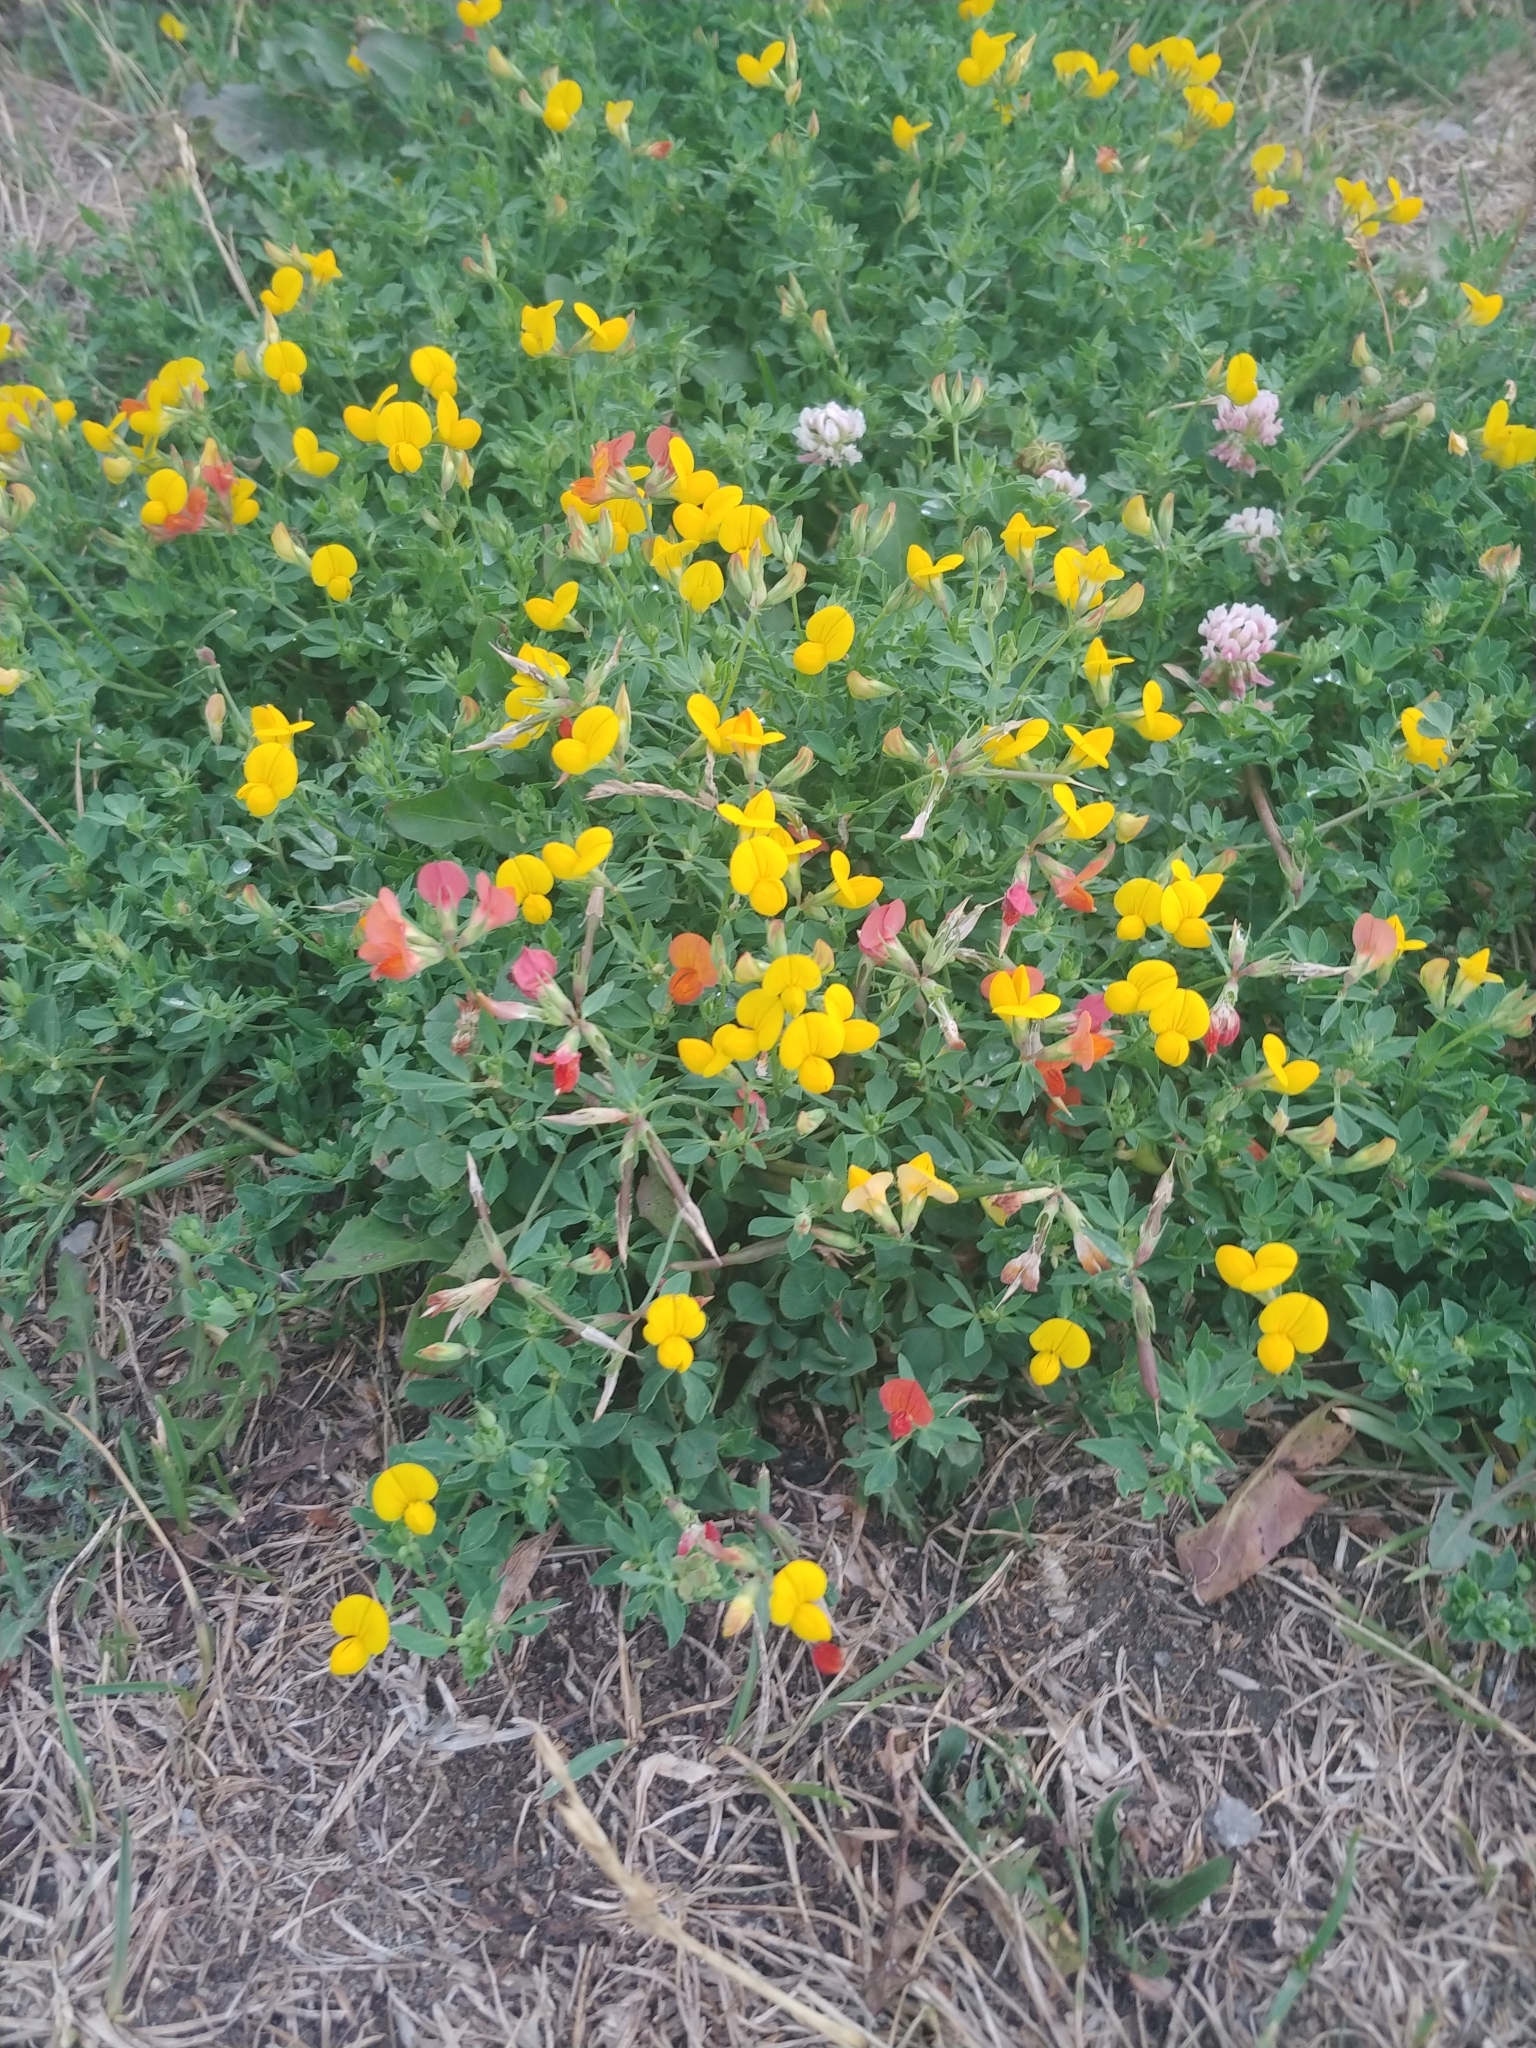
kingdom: Plantae
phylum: Tracheophyta
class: Magnoliopsida
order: Fabales
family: Fabaceae
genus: Lotus
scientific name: Lotus corniculatus
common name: Common bird's-foot-trefoil
